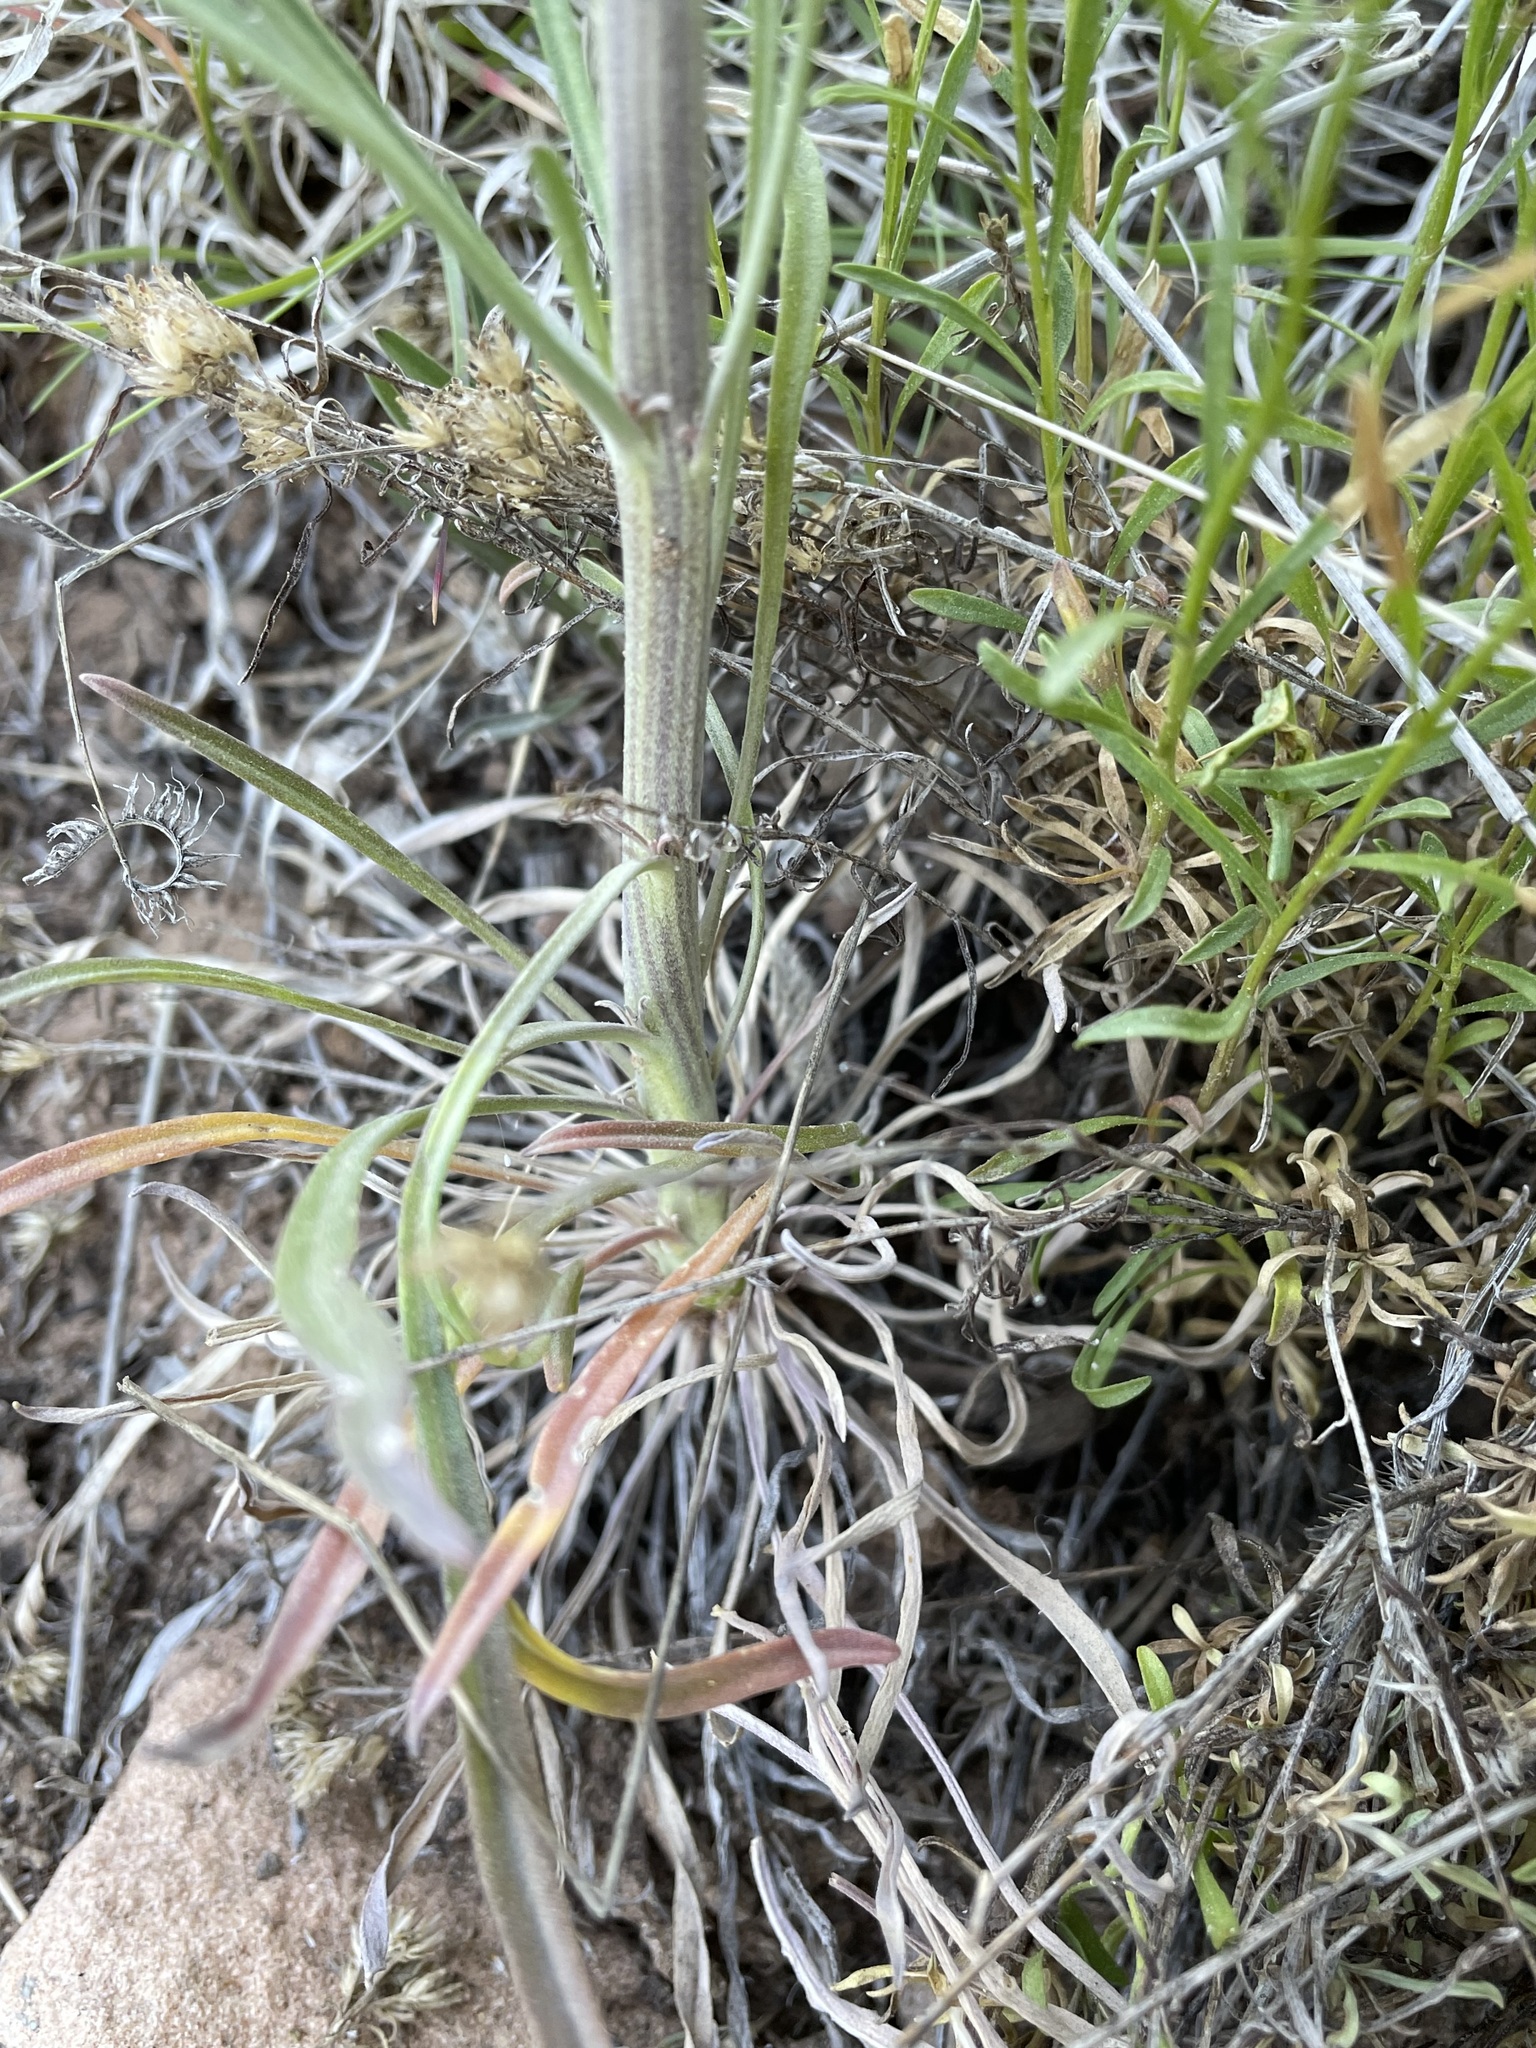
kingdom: Plantae
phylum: Tracheophyta
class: Magnoliopsida
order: Brassicales
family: Brassicaceae
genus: Erysimum
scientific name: Erysimum capitatum
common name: Western wallflower
